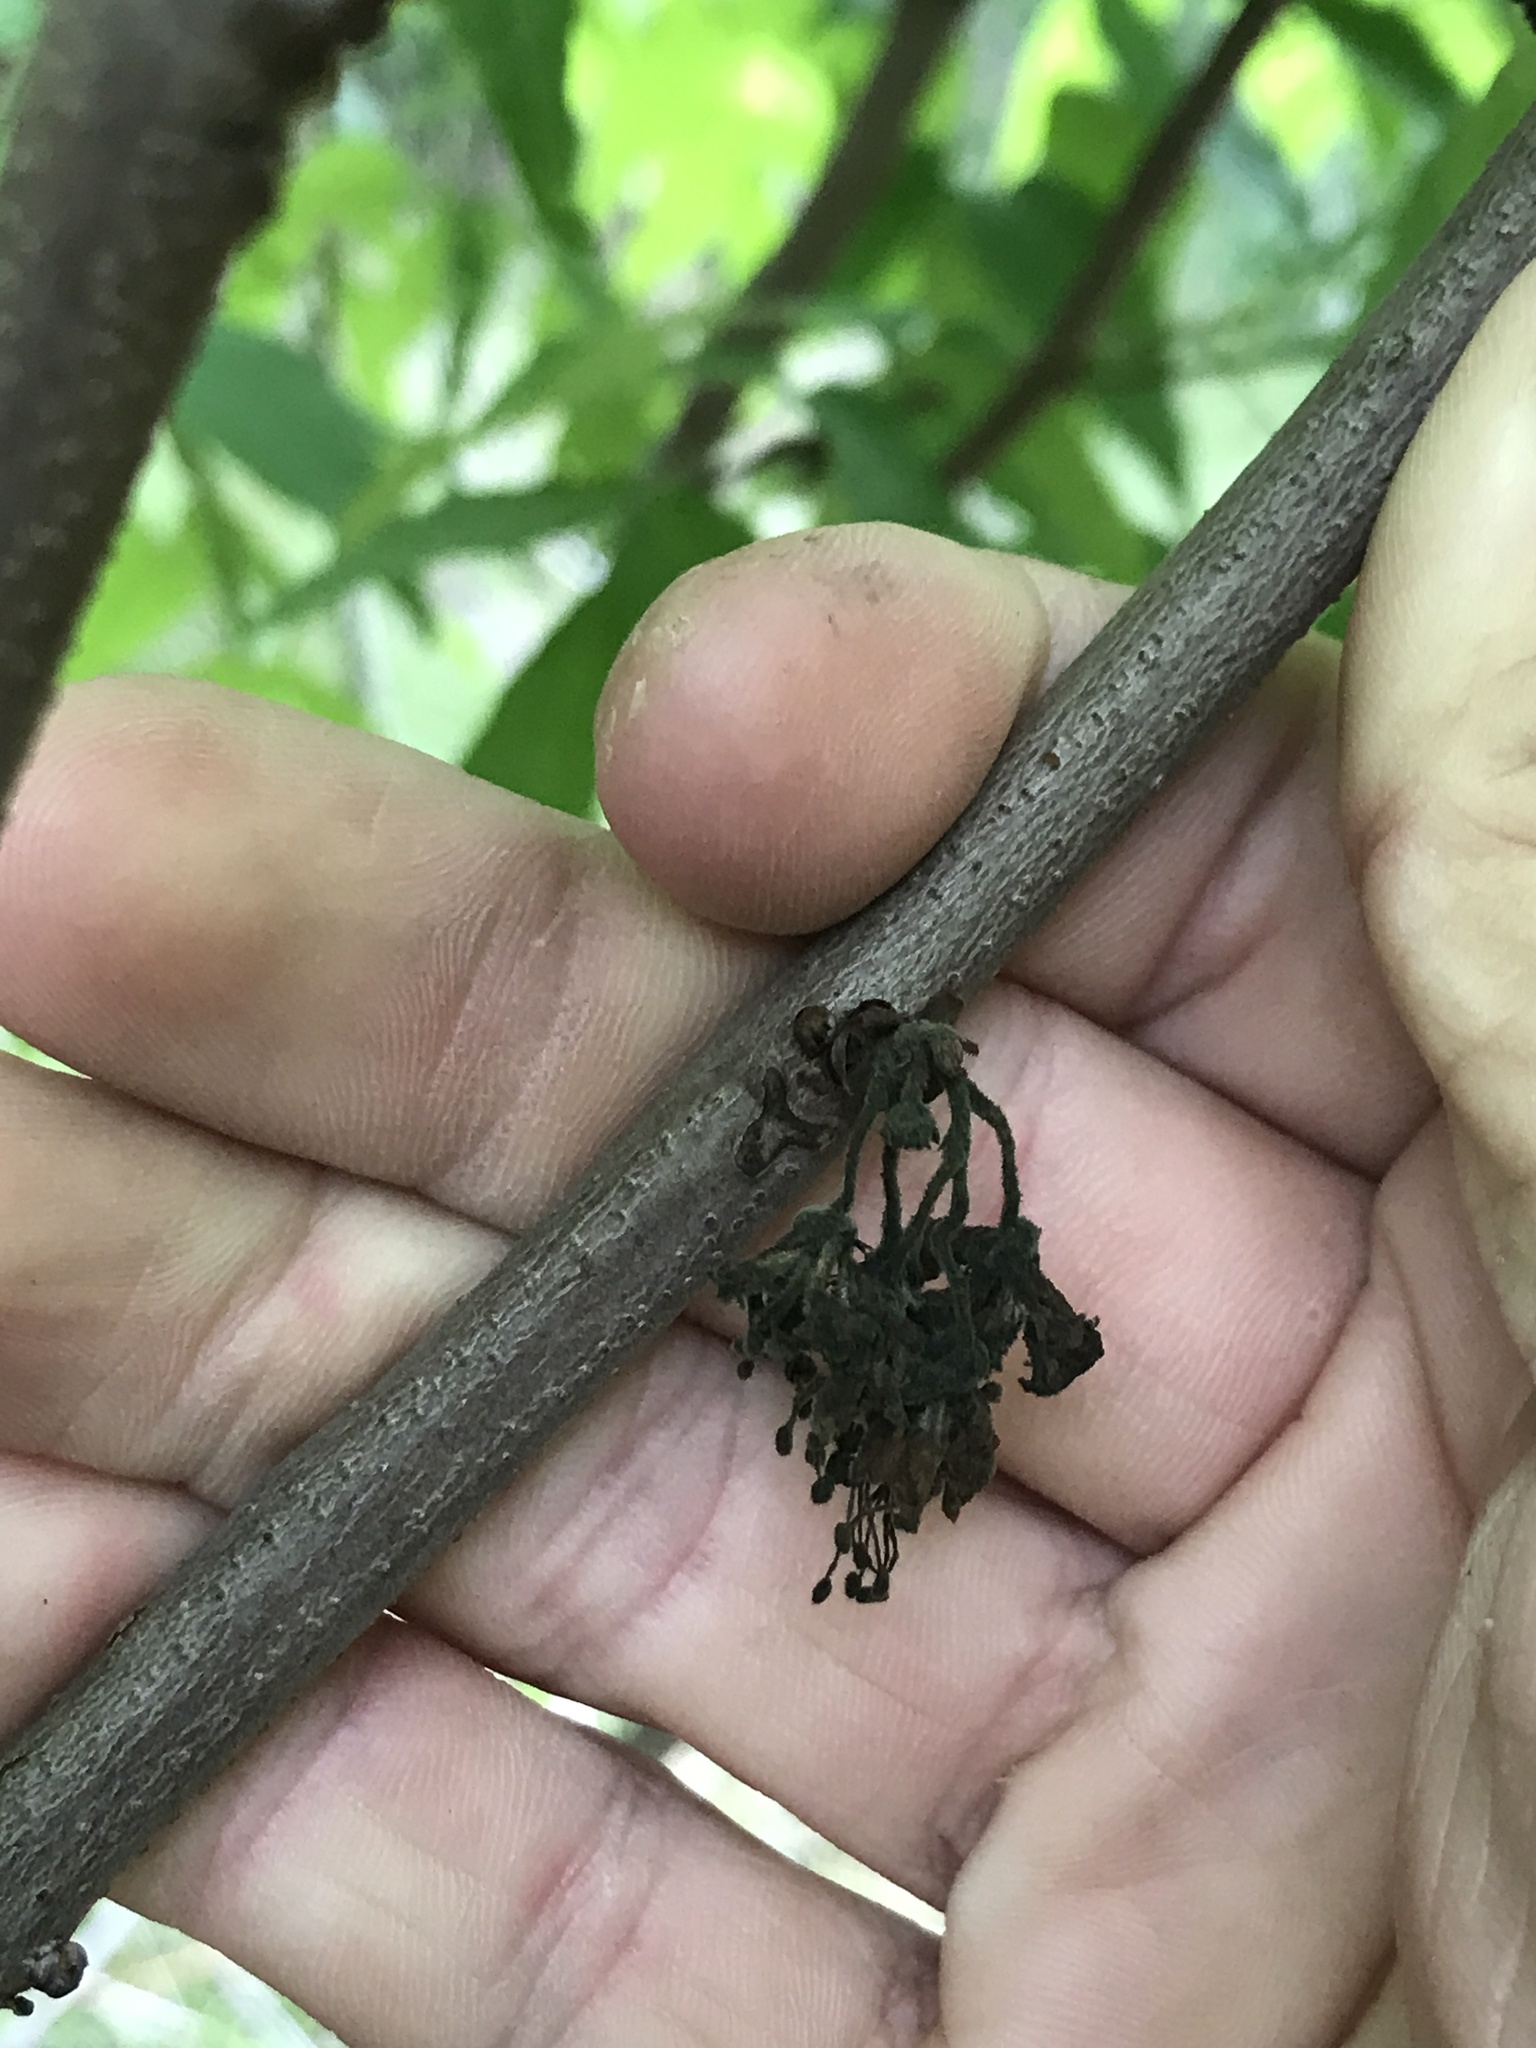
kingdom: Plantae
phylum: Tracheophyta
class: Magnoliopsida
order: Sapindales
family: Sapindaceae
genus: Ungnadia
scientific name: Ungnadia speciosa
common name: Texas-buckeye
